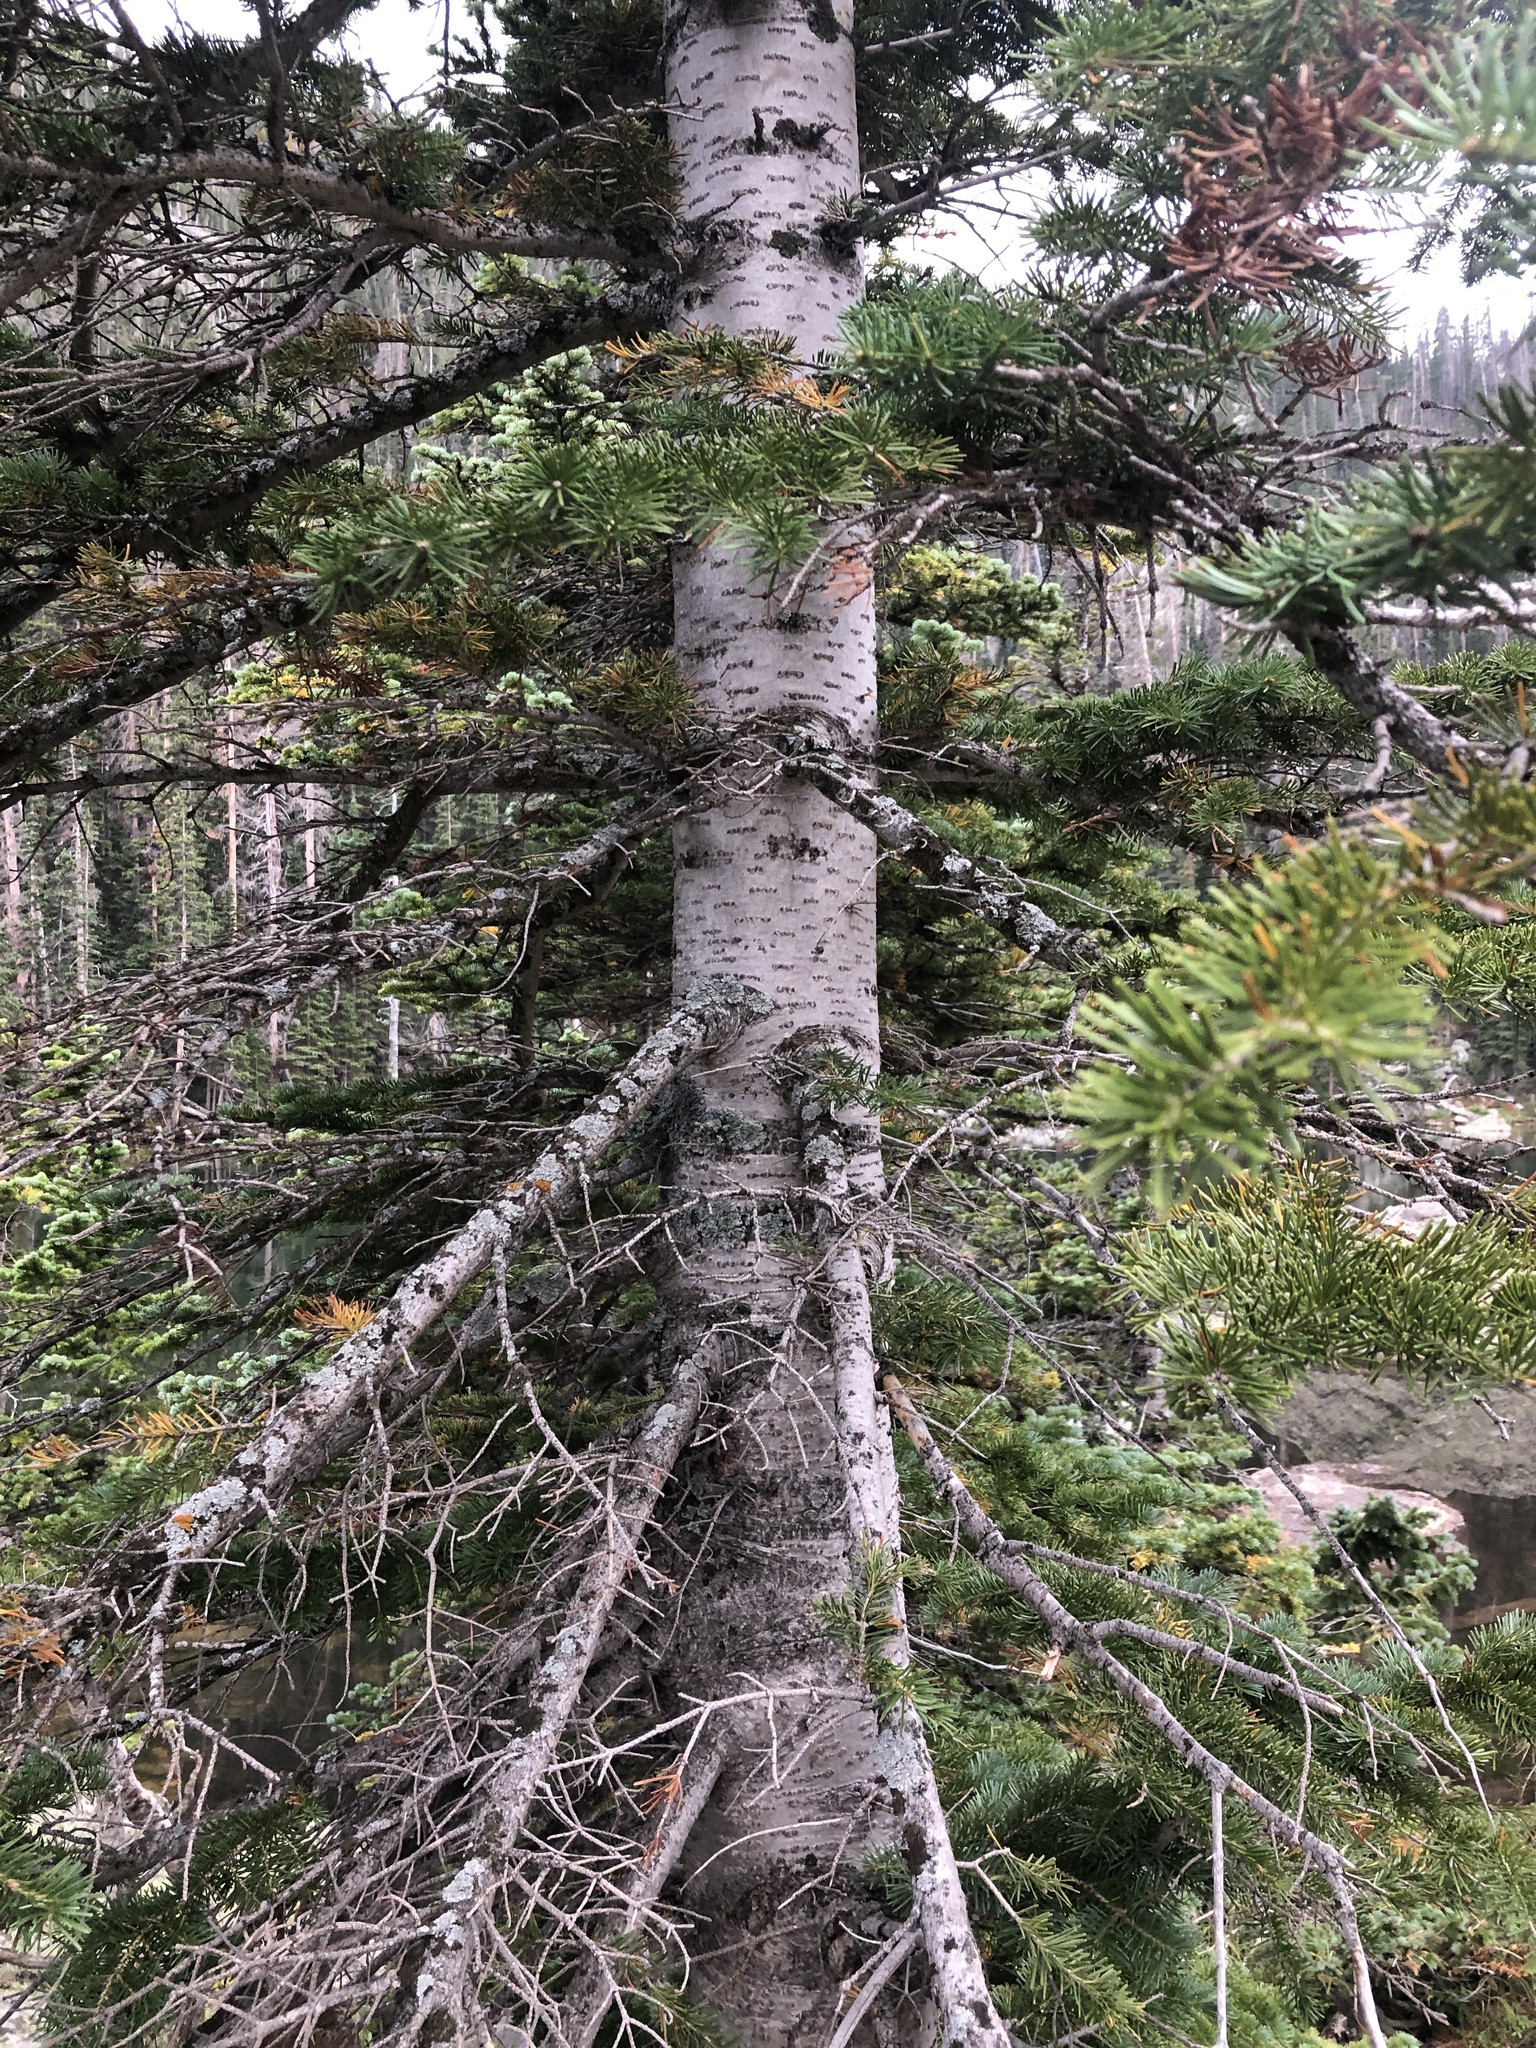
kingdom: Plantae
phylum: Tracheophyta
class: Pinopsida
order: Pinales
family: Pinaceae
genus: Abies
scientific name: Abies lasiocarpa
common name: Subalpine fir
